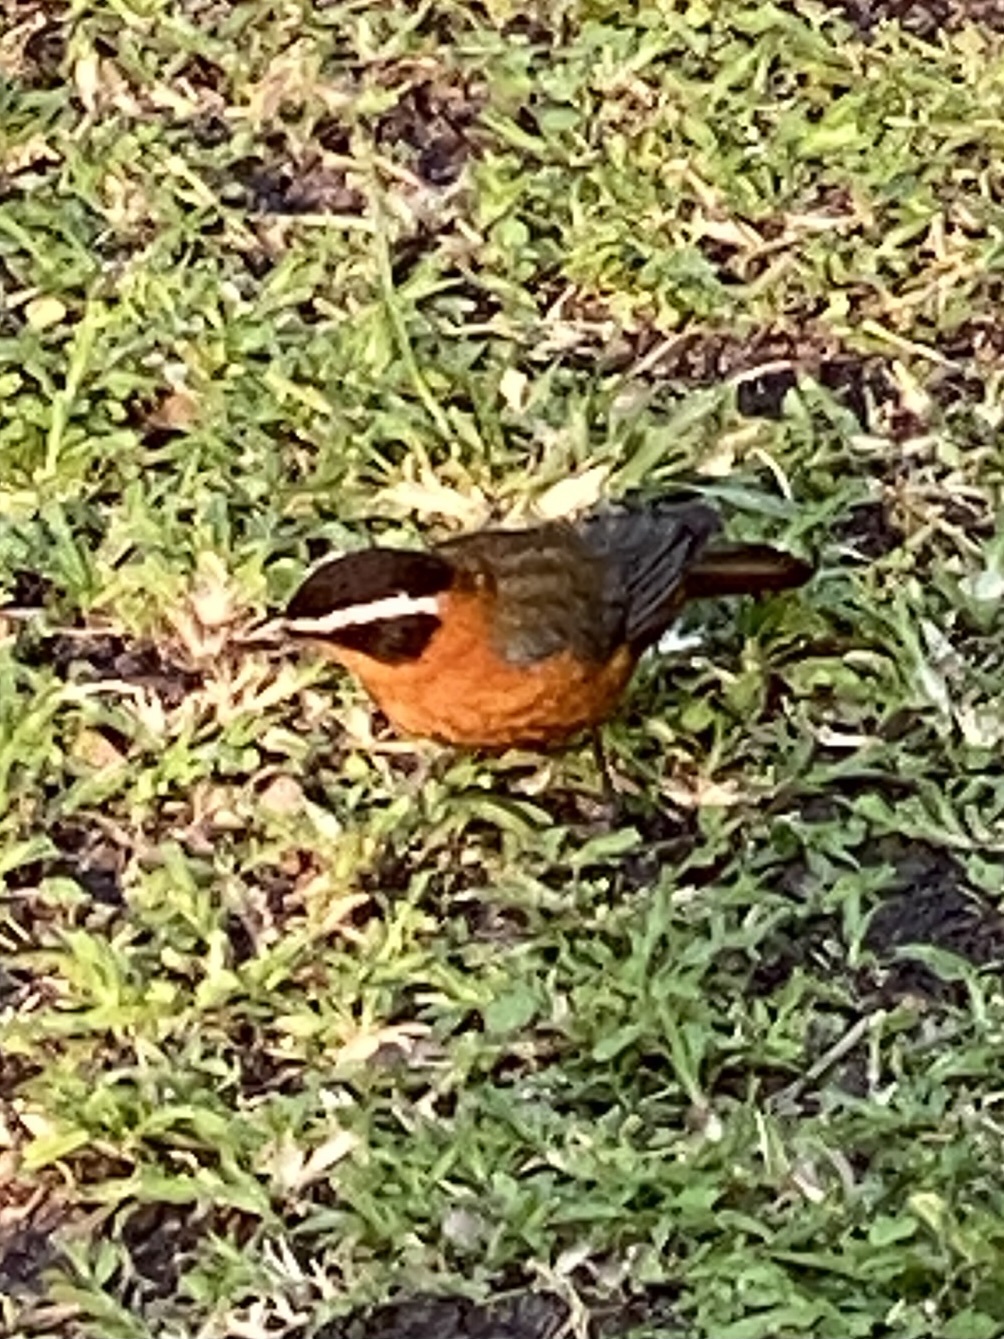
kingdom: Animalia
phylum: Chordata
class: Aves
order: Passeriformes
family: Muscicapidae
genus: Cossypha
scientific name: Cossypha heuglini
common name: White-browed robin-chat
